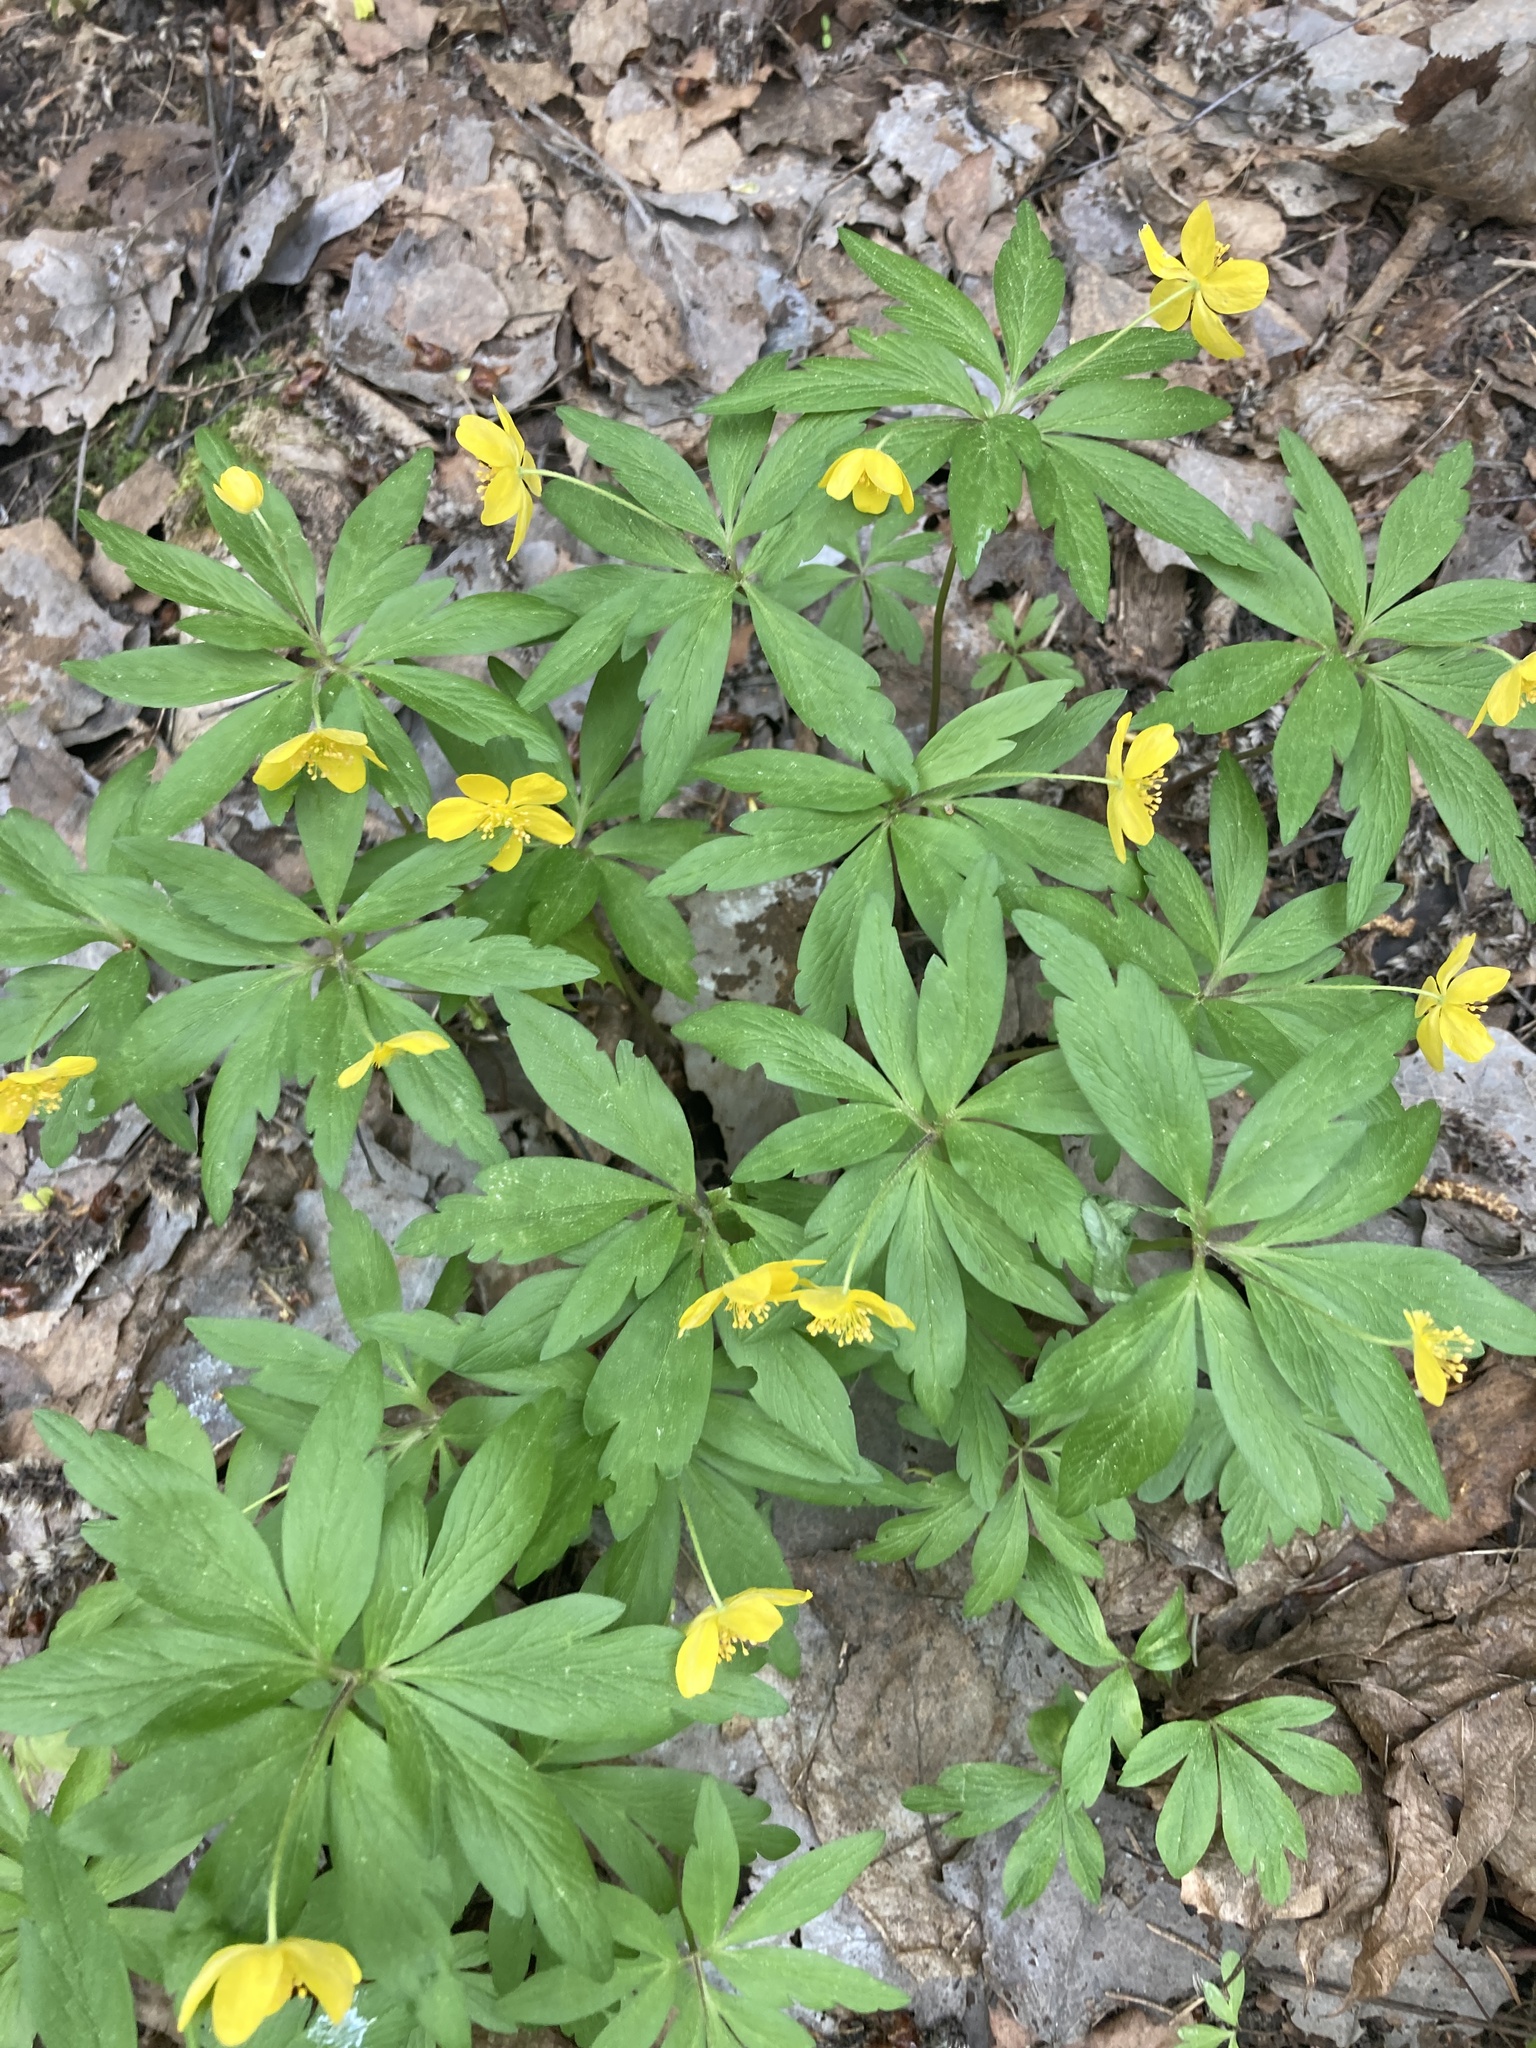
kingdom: Plantae
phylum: Tracheophyta
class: Magnoliopsida
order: Ranunculales
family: Ranunculaceae
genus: Anemone
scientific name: Anemone ranunculoides
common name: Yellow anemone
